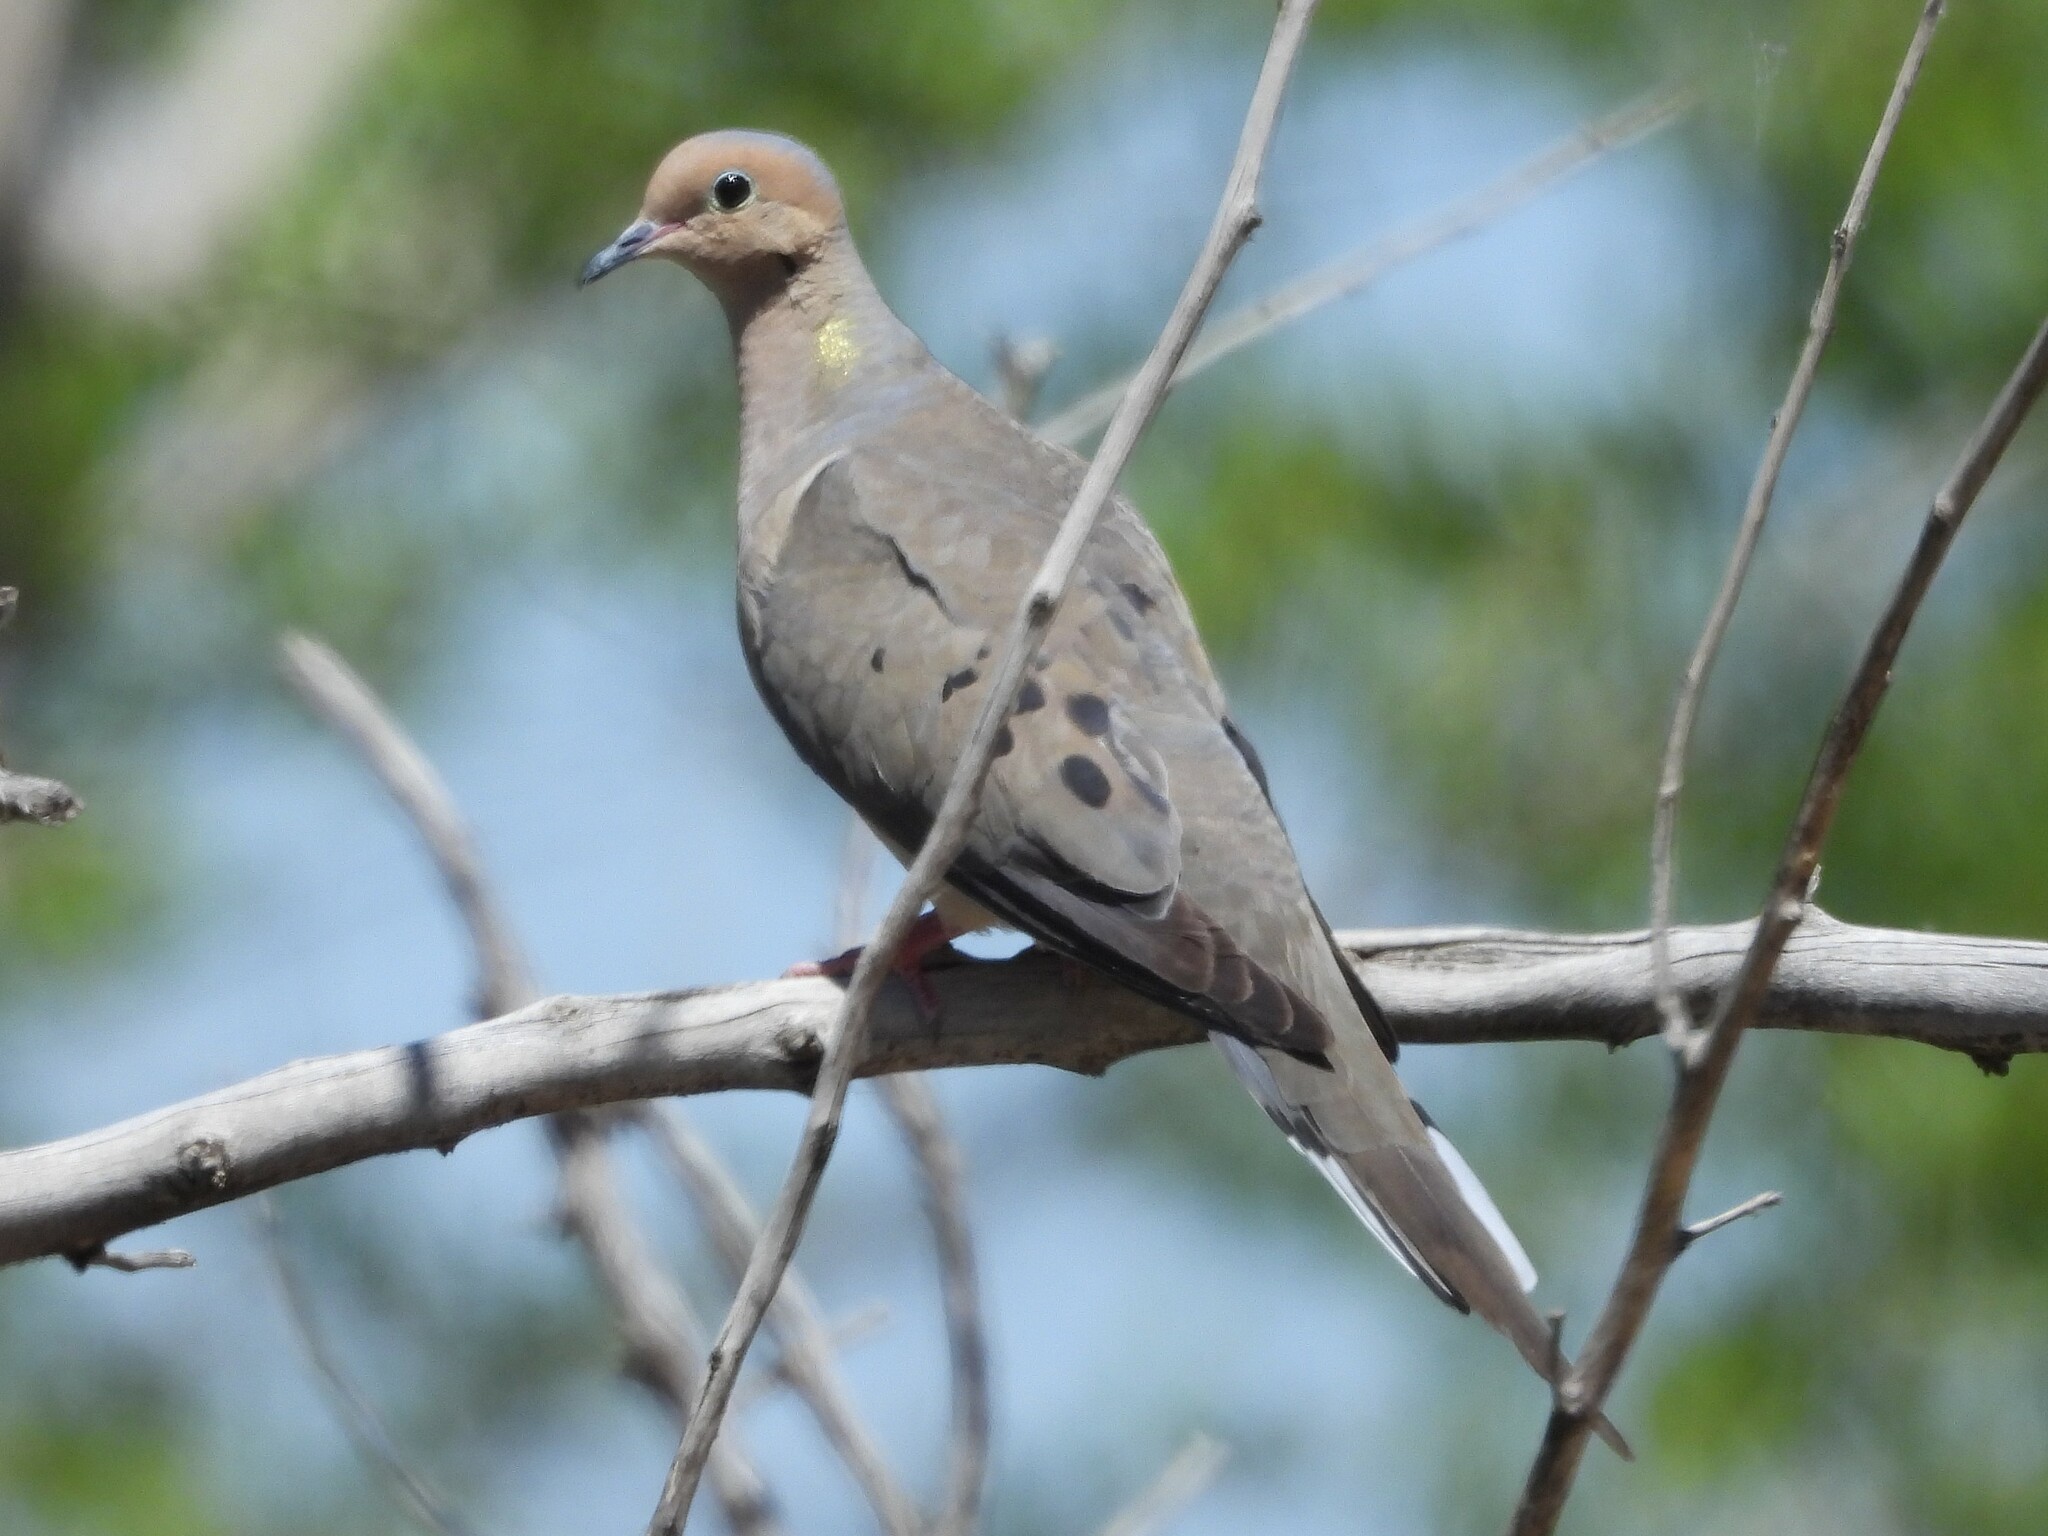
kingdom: Animalia
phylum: Chordata
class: Aves
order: Columbiformes
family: Columbidae
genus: Zenaida
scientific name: Zenaida macroura
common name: Mourning dove
